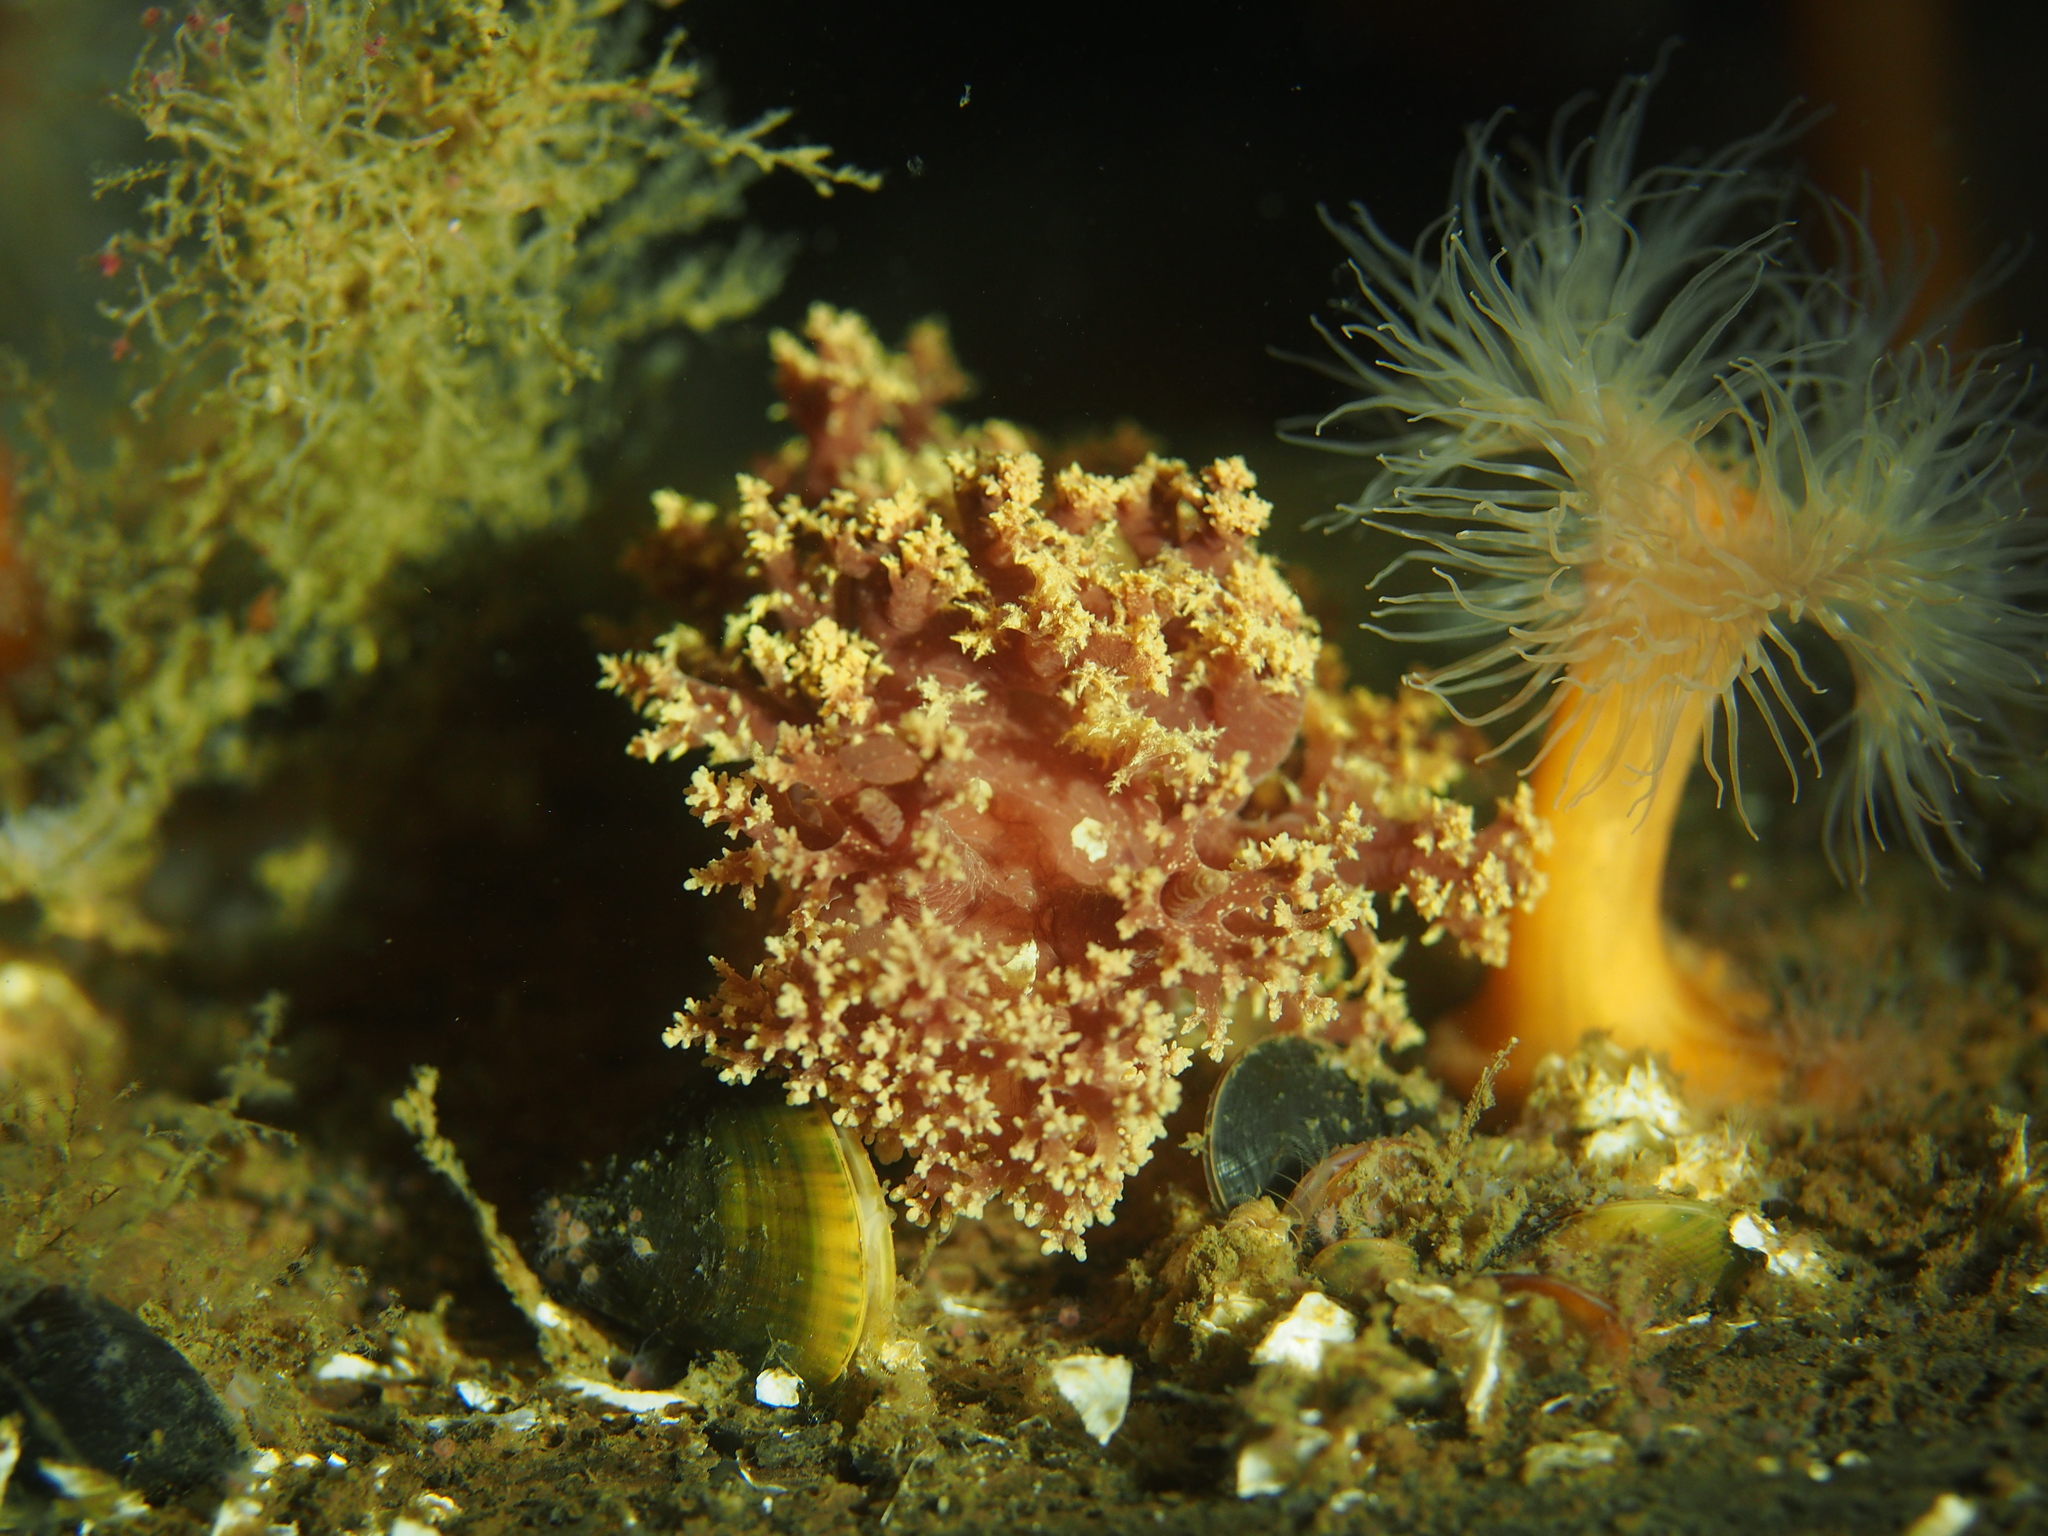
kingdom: Animalia
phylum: Mollusca
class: Gastropoda
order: Nudibranchia
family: Dendronotidae
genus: Dendronotus
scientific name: Dendronotus lacteus
